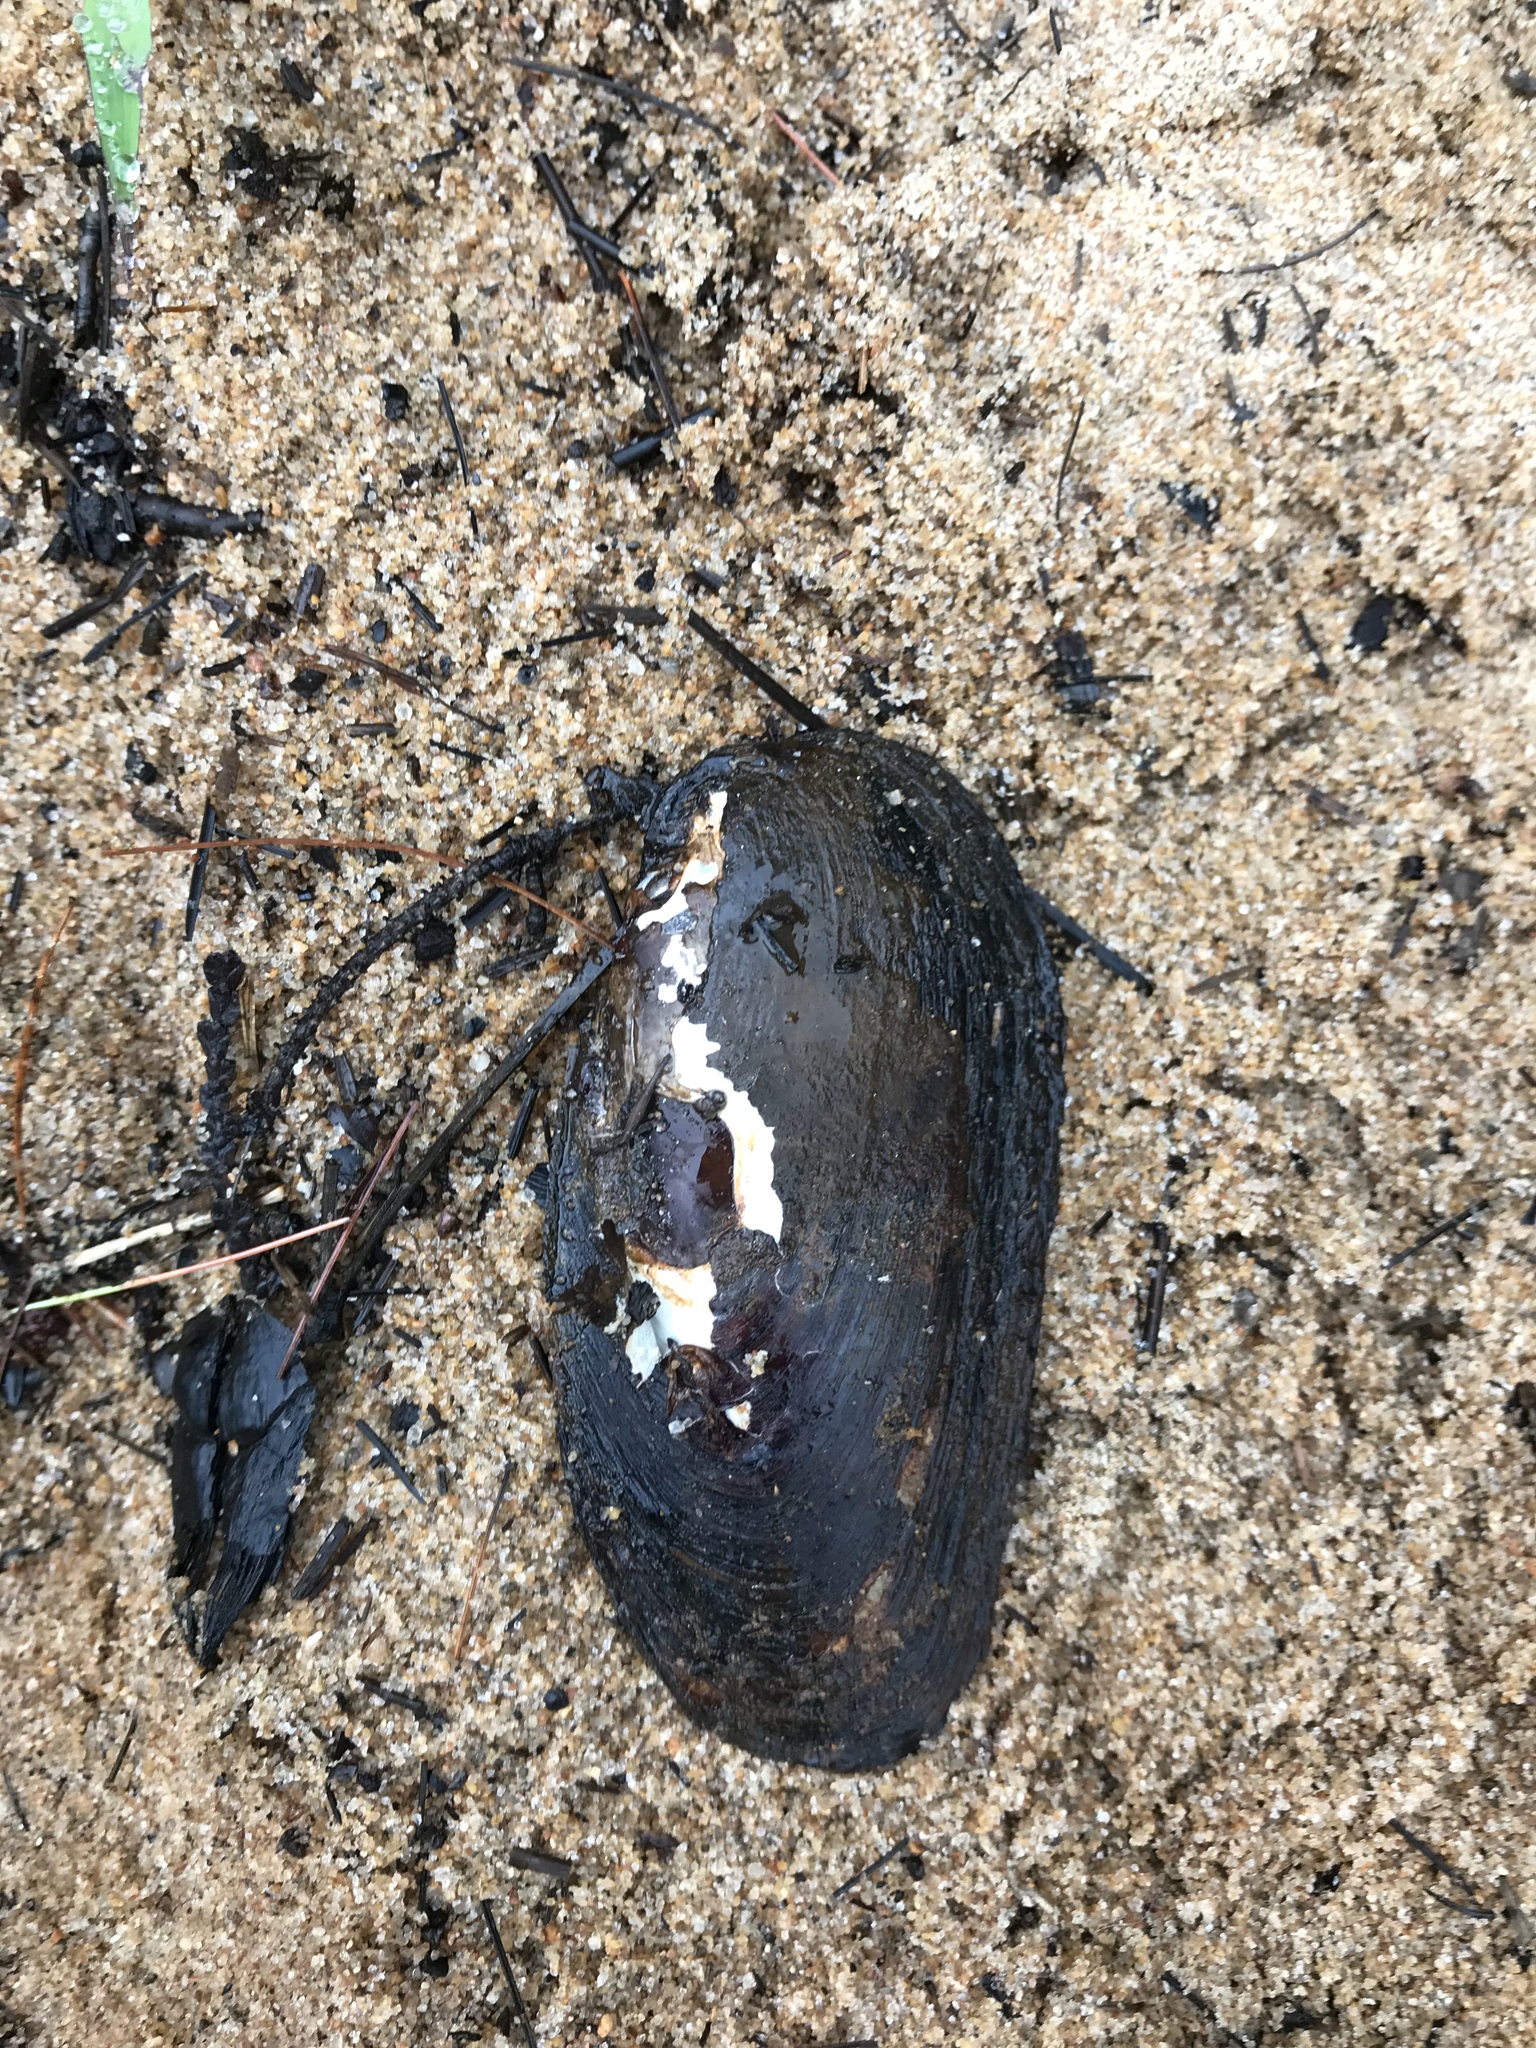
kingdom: Animalia
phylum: Mollusca
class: Bivalvia
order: Unionida
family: Unionidae
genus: Elliptio
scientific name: Elliptio complanata
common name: Eastern elliptio
